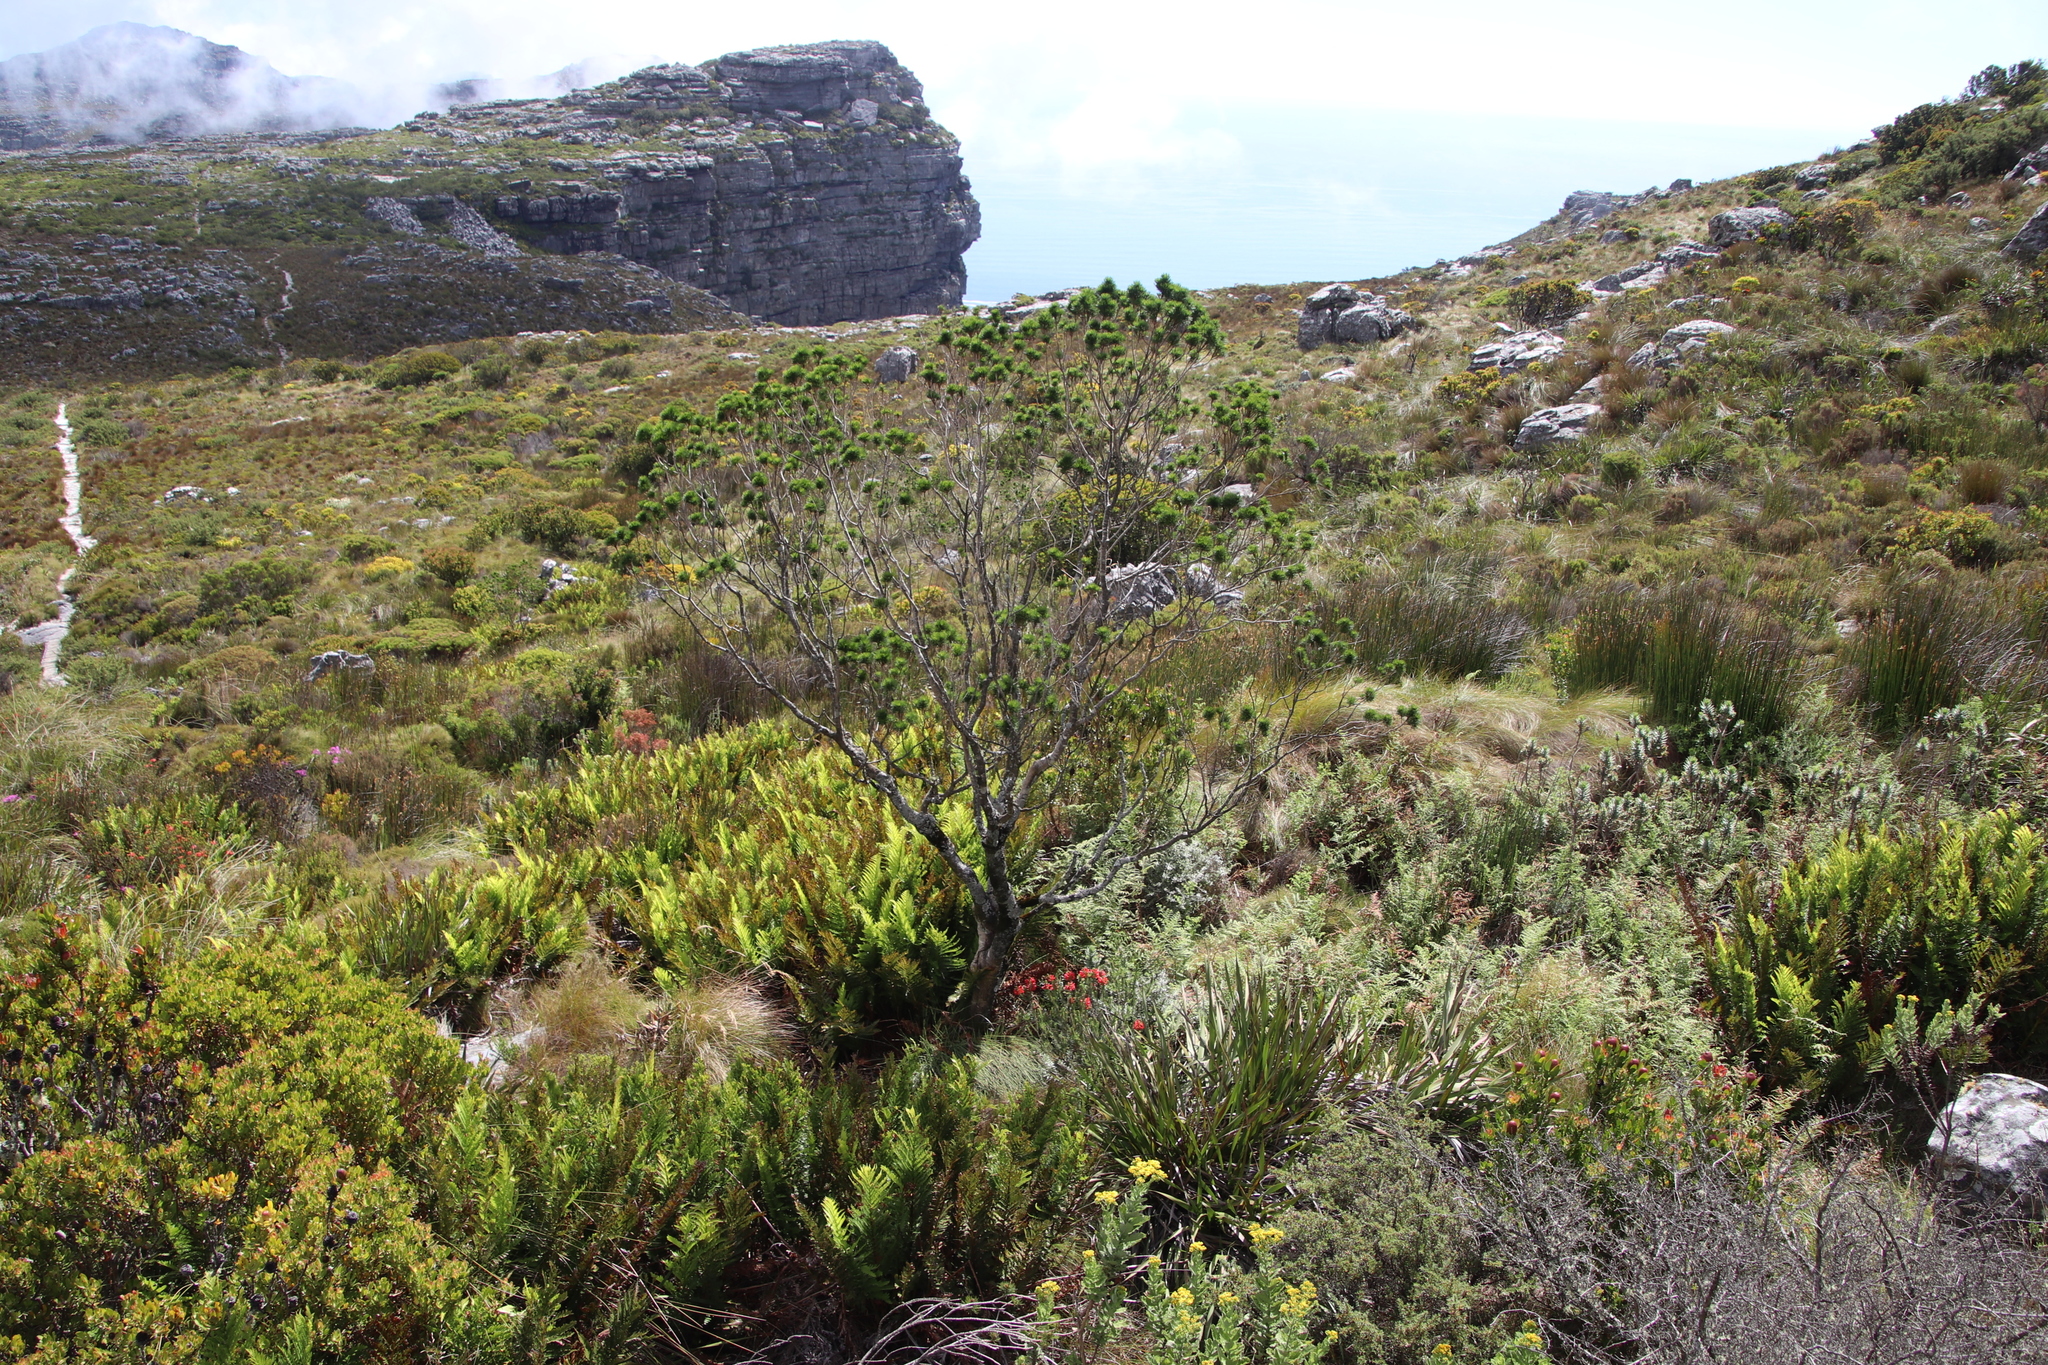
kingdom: Plantae
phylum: Tracheophyta
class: Magnoliopsida
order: Ericales
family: Ericaceae
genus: Erica
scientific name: Erica abietina
